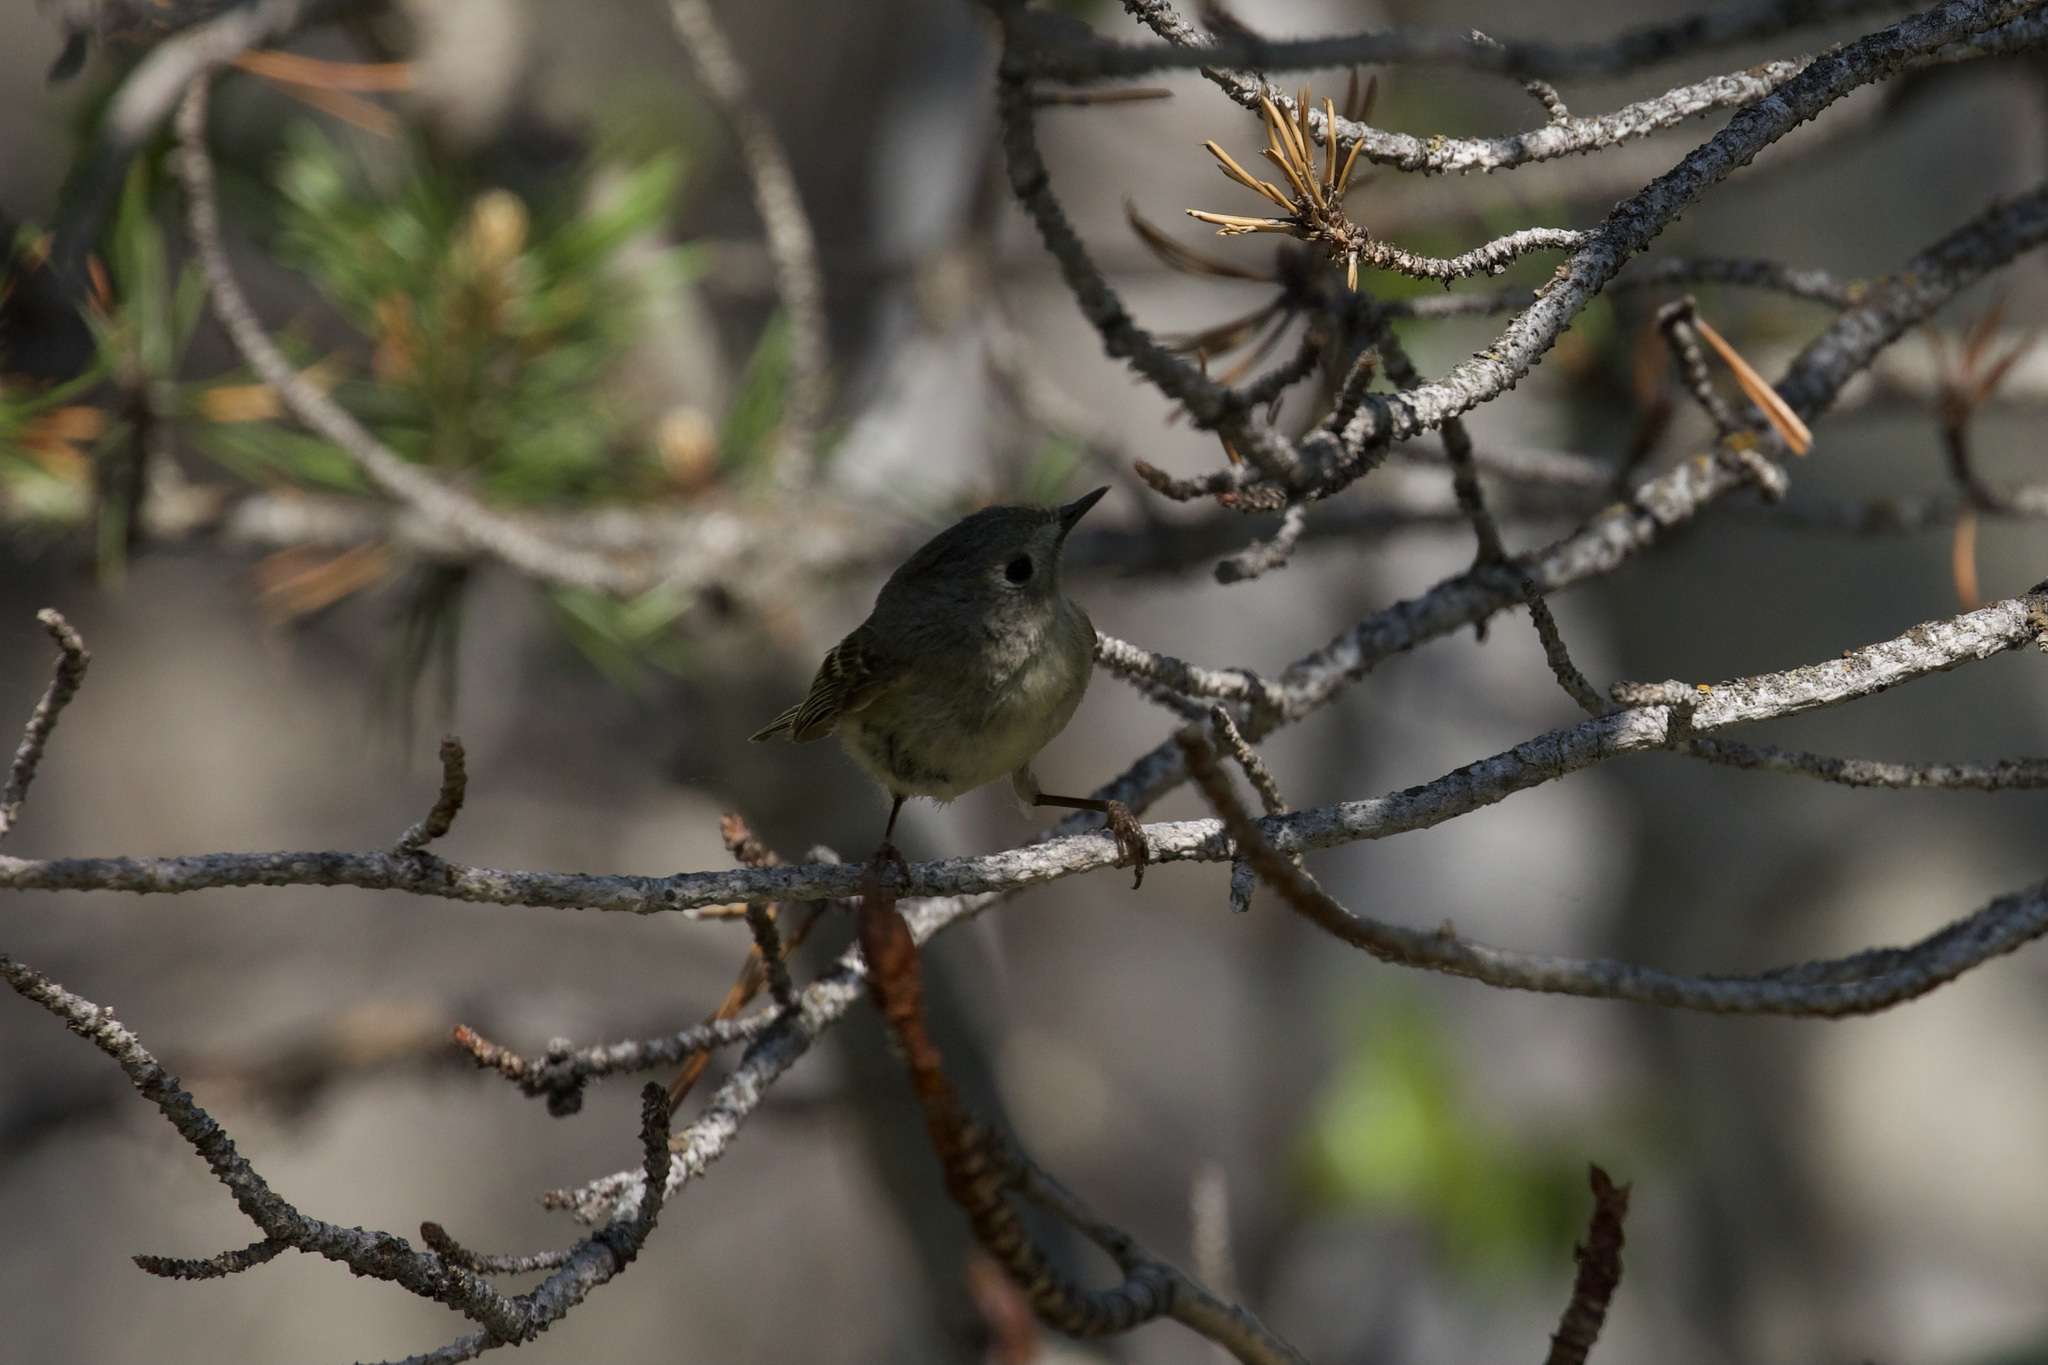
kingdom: Animalia
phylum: Chordata
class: Aves
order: Passeriformes
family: Regulidae
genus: Regulus
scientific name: Regulus calendula
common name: Ruby-crowned kinglet
